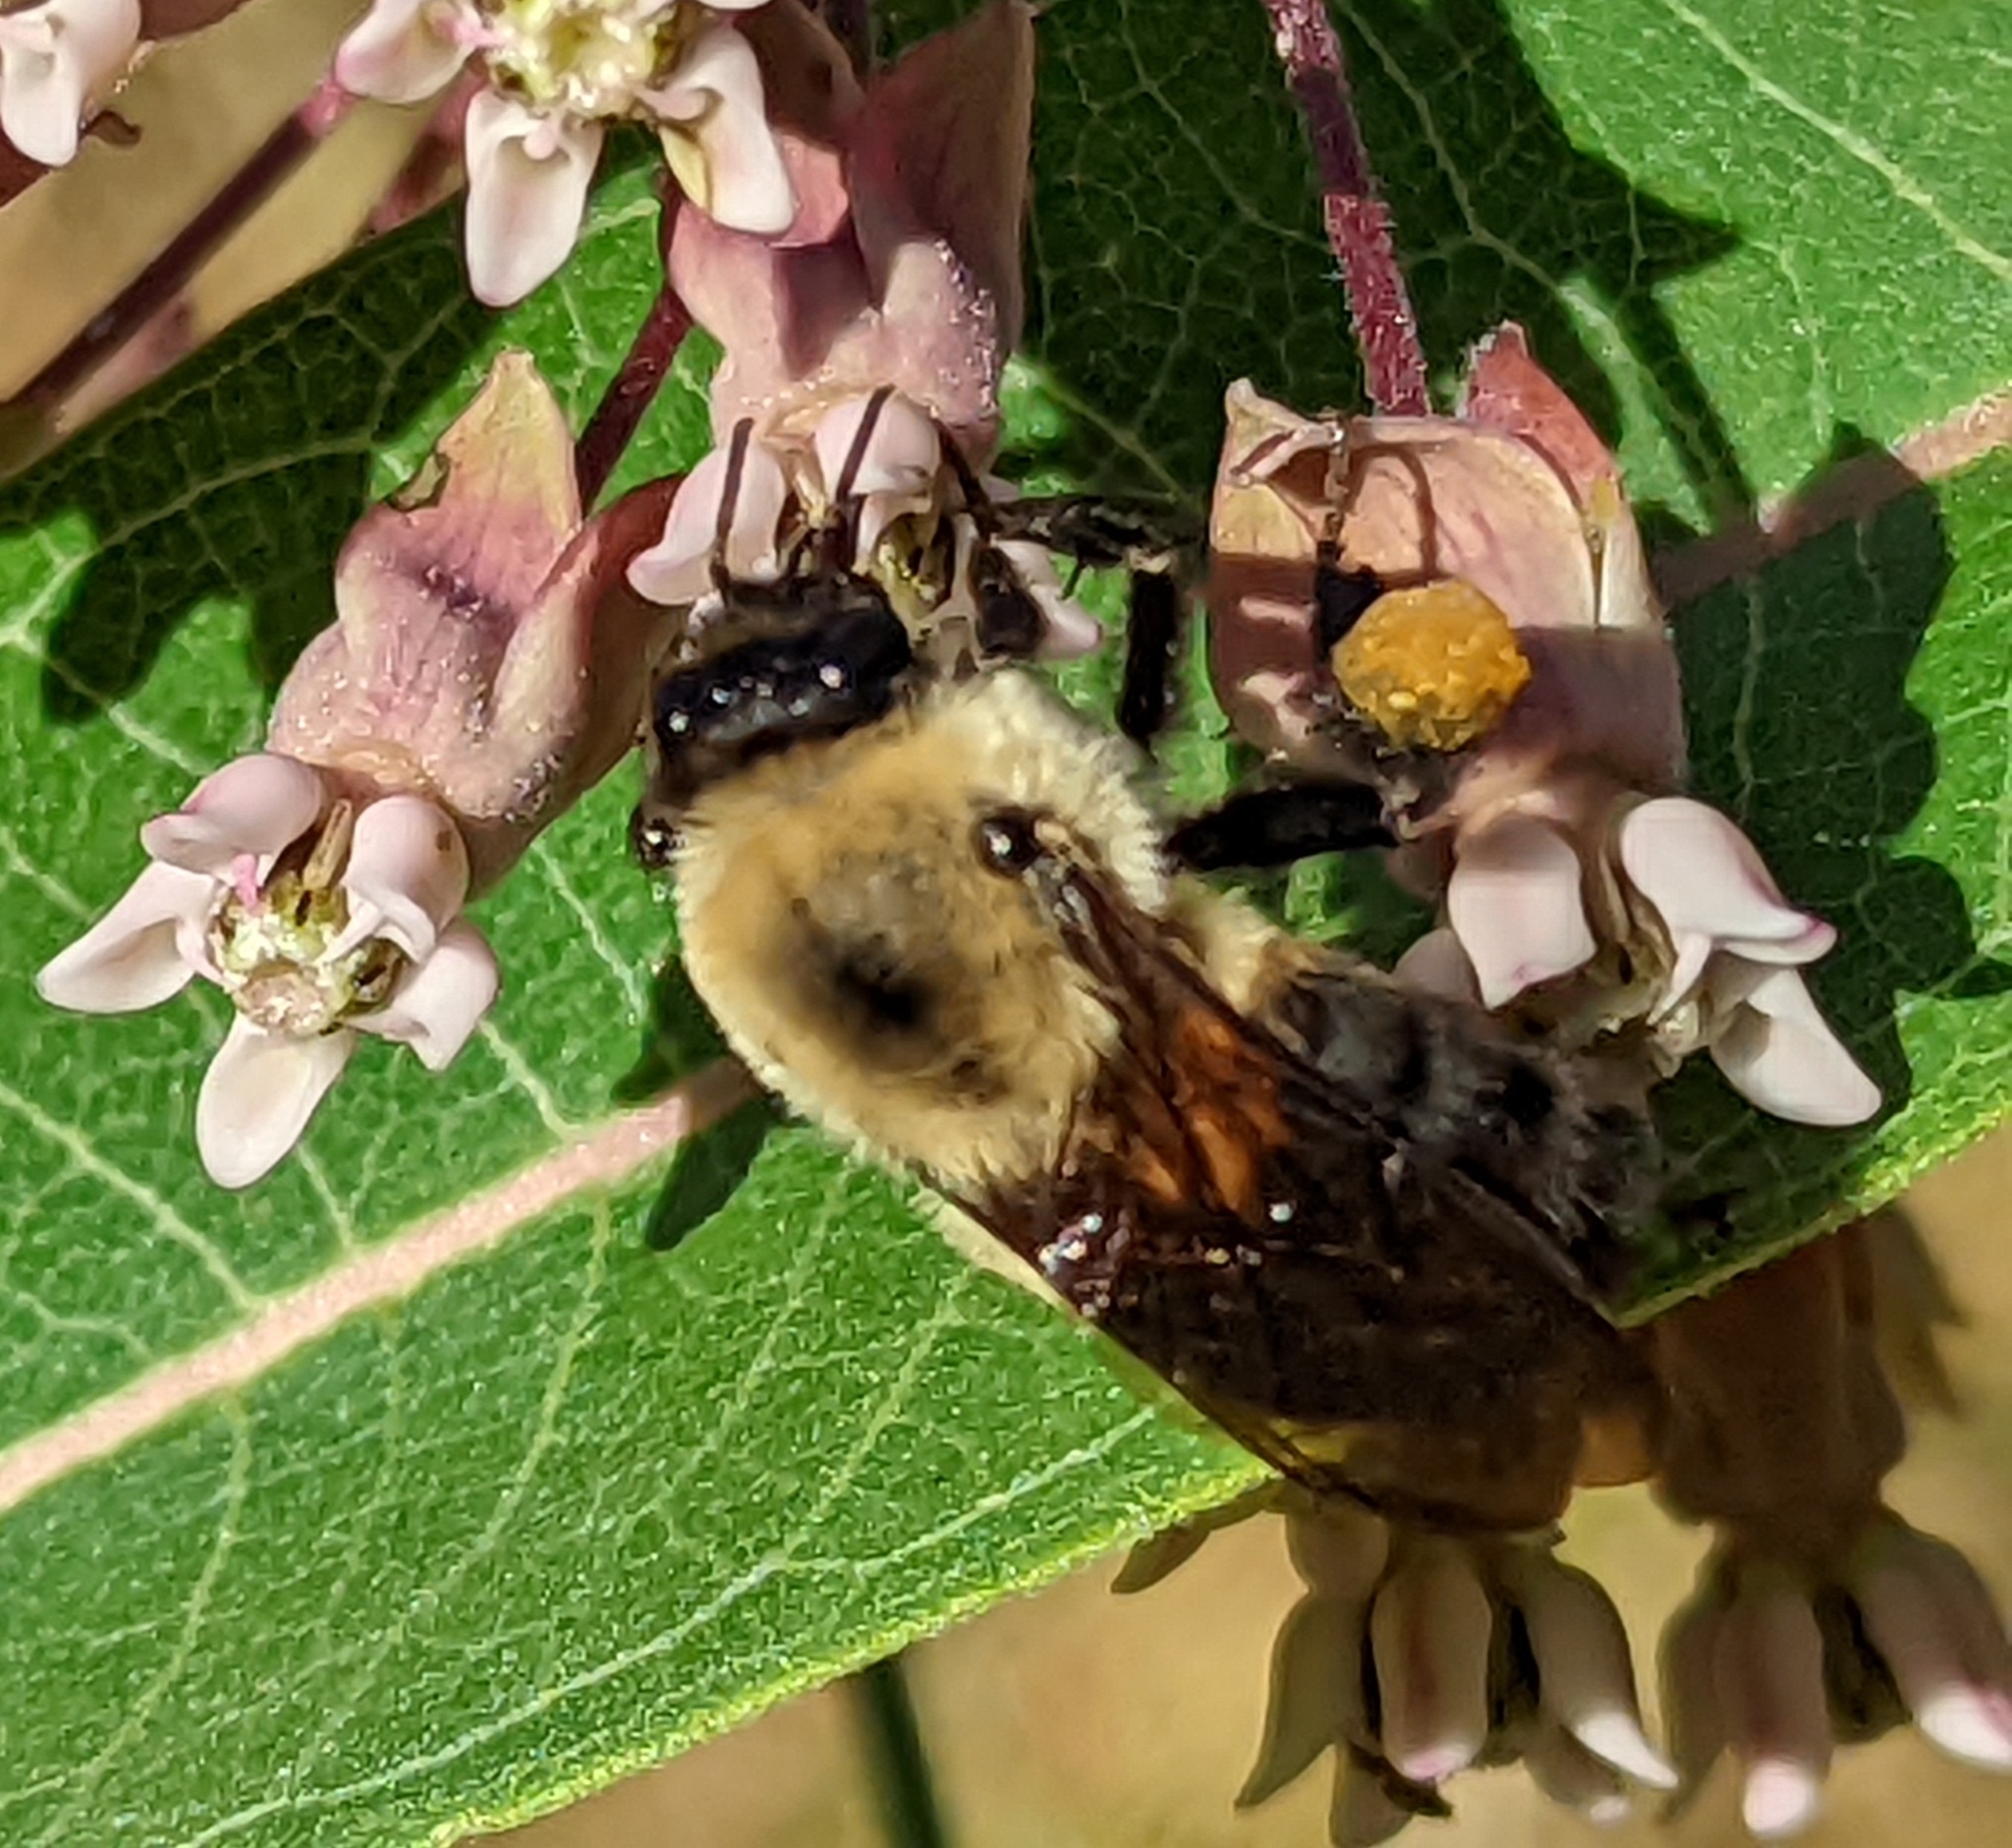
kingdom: Animalia
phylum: Arthropoda
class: Insecta
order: Hymenoptera
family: Apidae
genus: Bombus
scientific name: Bombus griseocollis
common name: Brown-belted bumble bee
